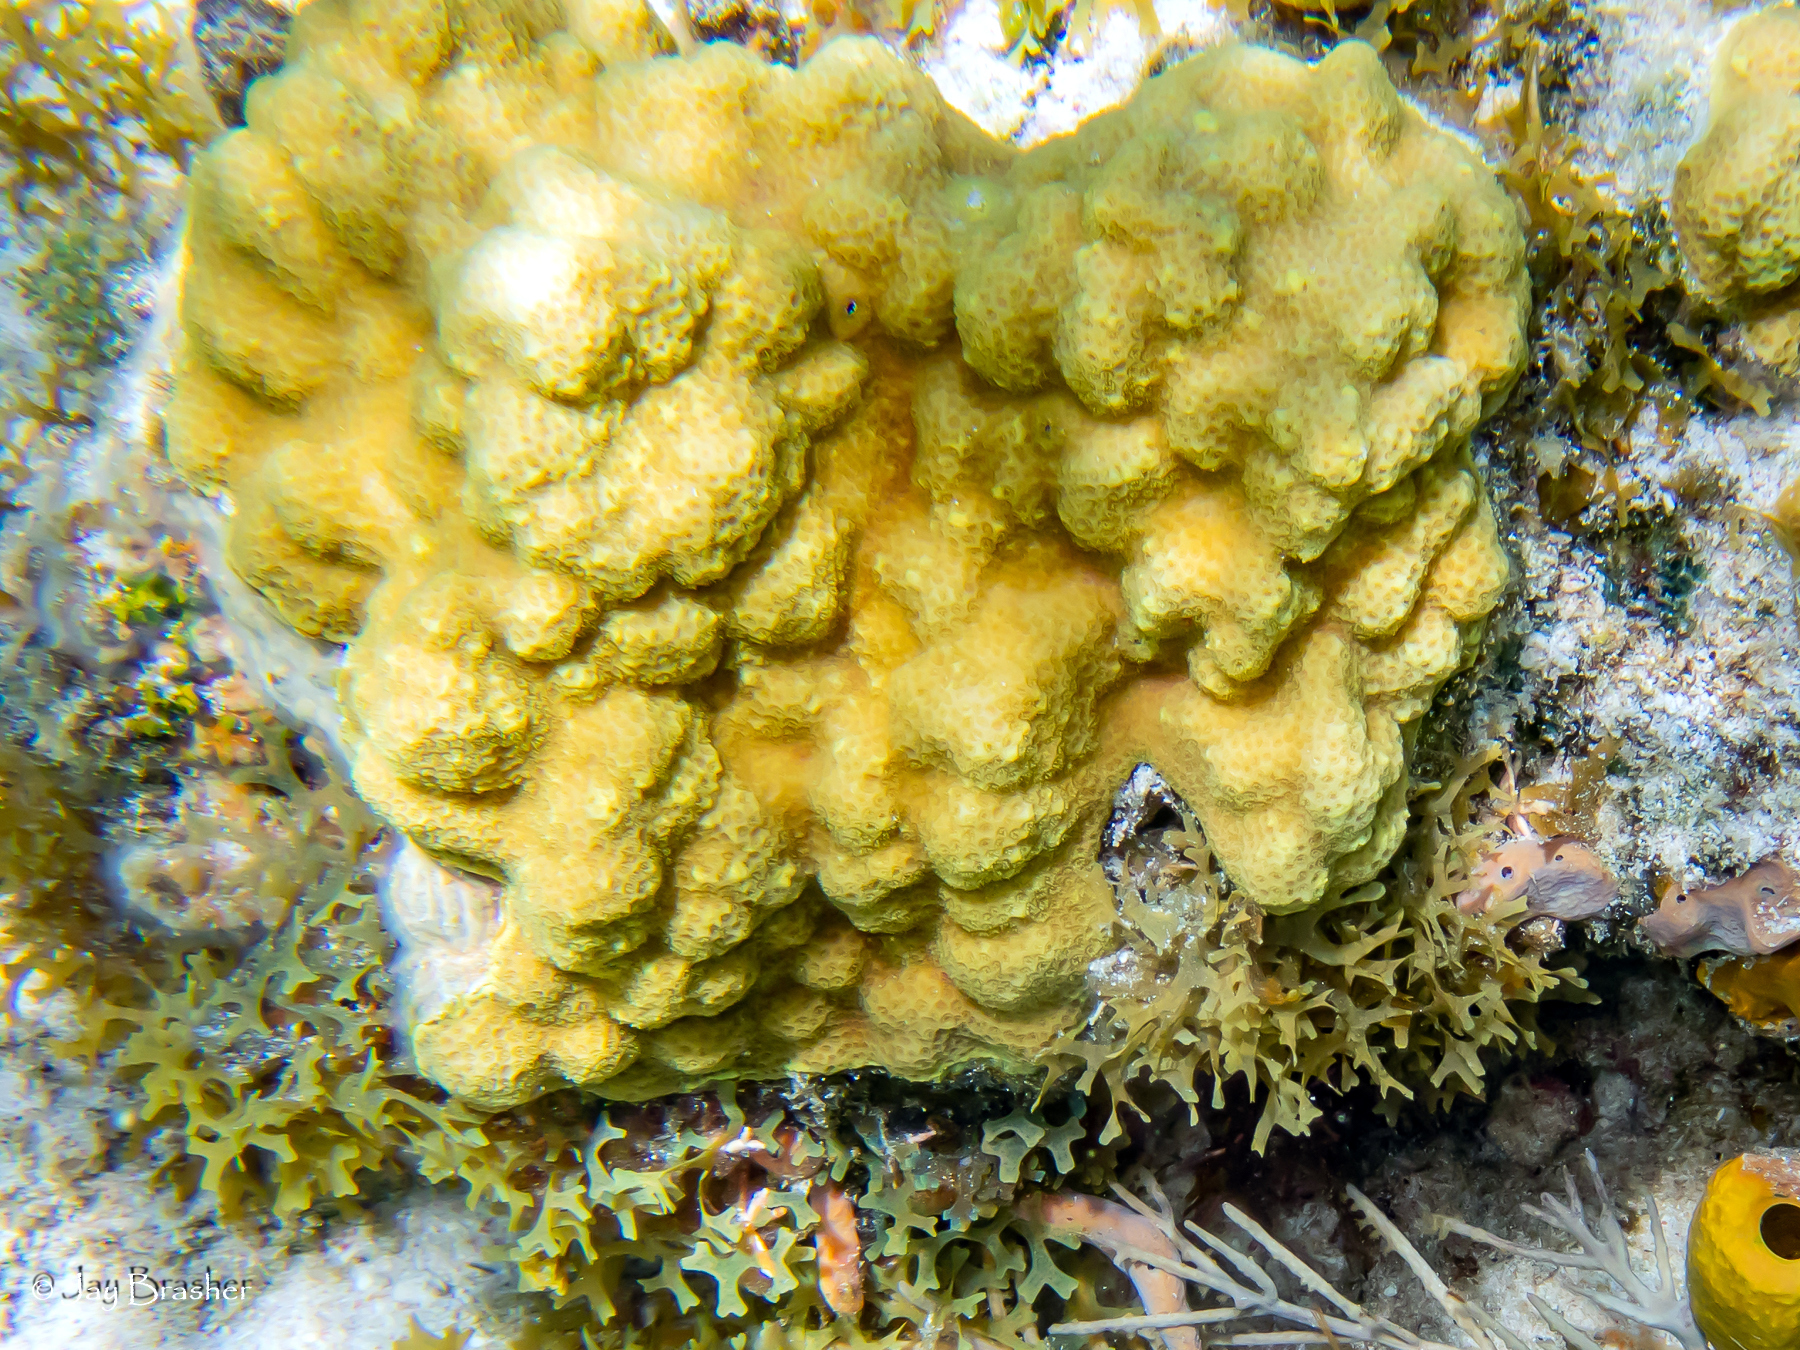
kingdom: Animalia
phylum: Cnidaria
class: Anthozoa
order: Scleractinia
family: Poritidae
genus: Porites
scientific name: Porites astreoides
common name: Mustard hill coral
